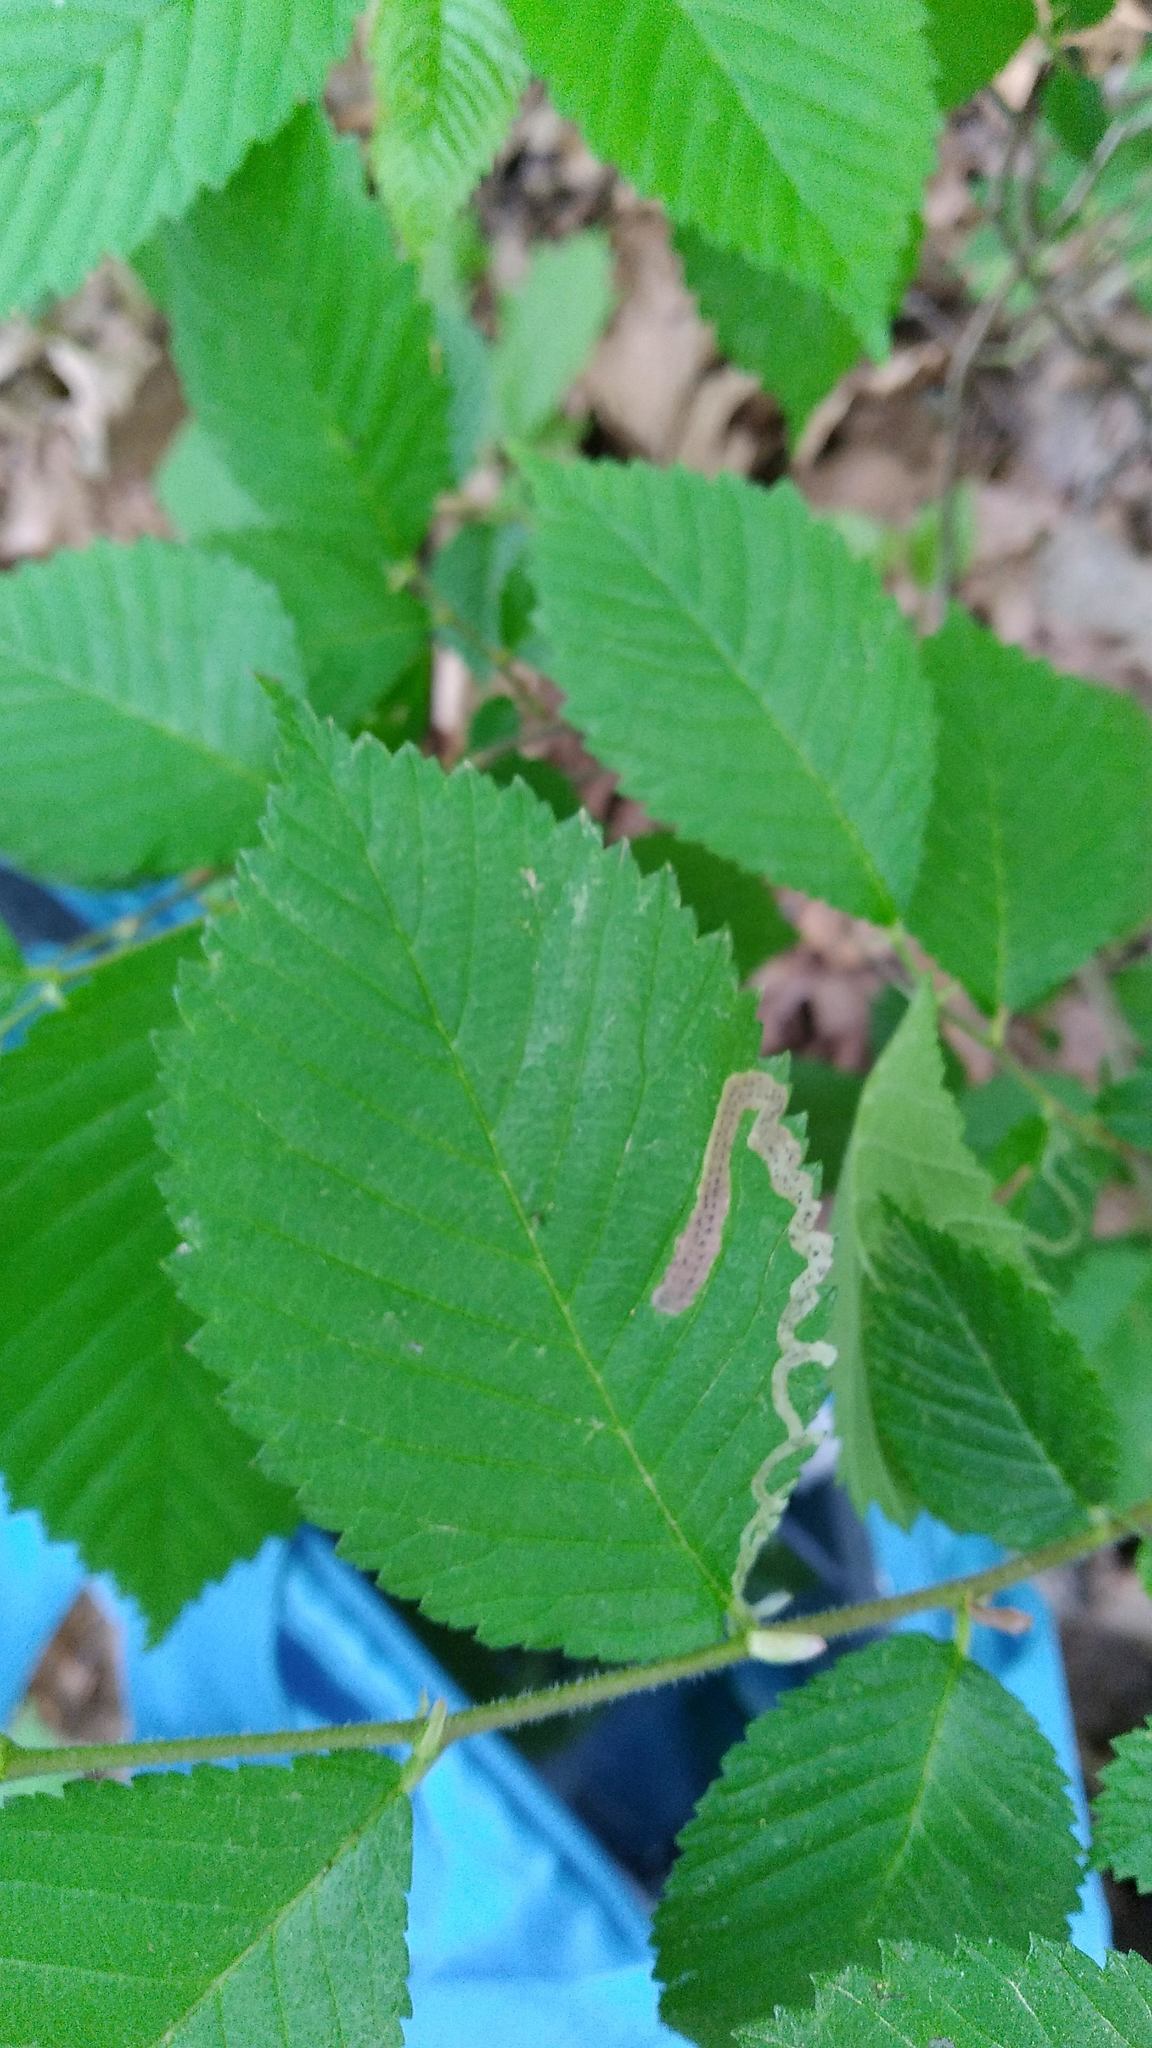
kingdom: Animalia
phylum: Arthropoda
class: Insecta
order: Diptera
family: Agromyzidae
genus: Agromyza
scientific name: Agromyza aristata
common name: Elm agromyzid leafminer
